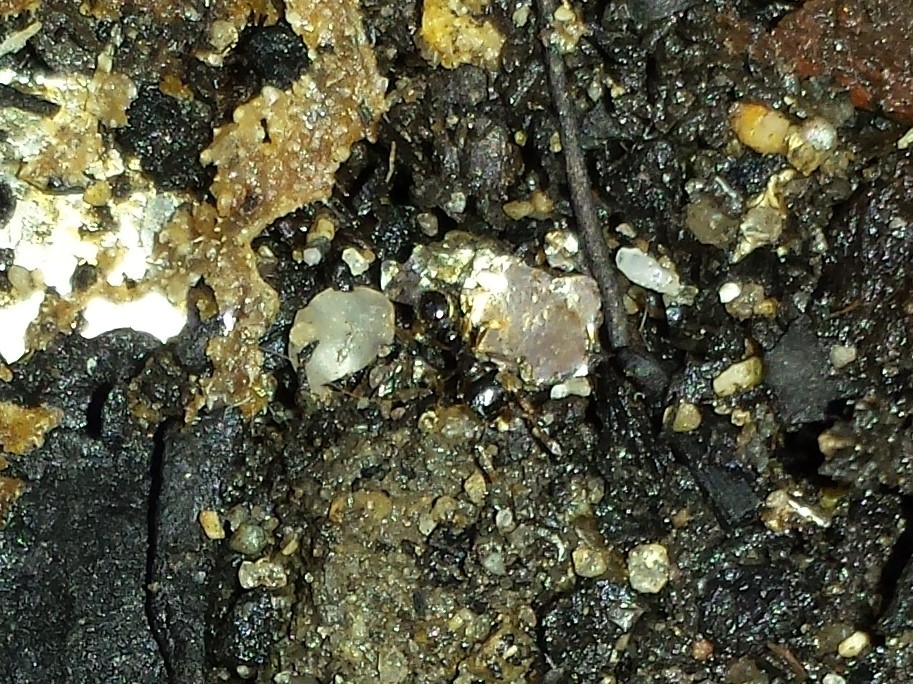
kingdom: Animalia
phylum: Arthropoda
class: Insecta
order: Hymenoptera
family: Formicidae
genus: Tetramorium
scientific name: Tetramorium immigrans
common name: Pavement ant
